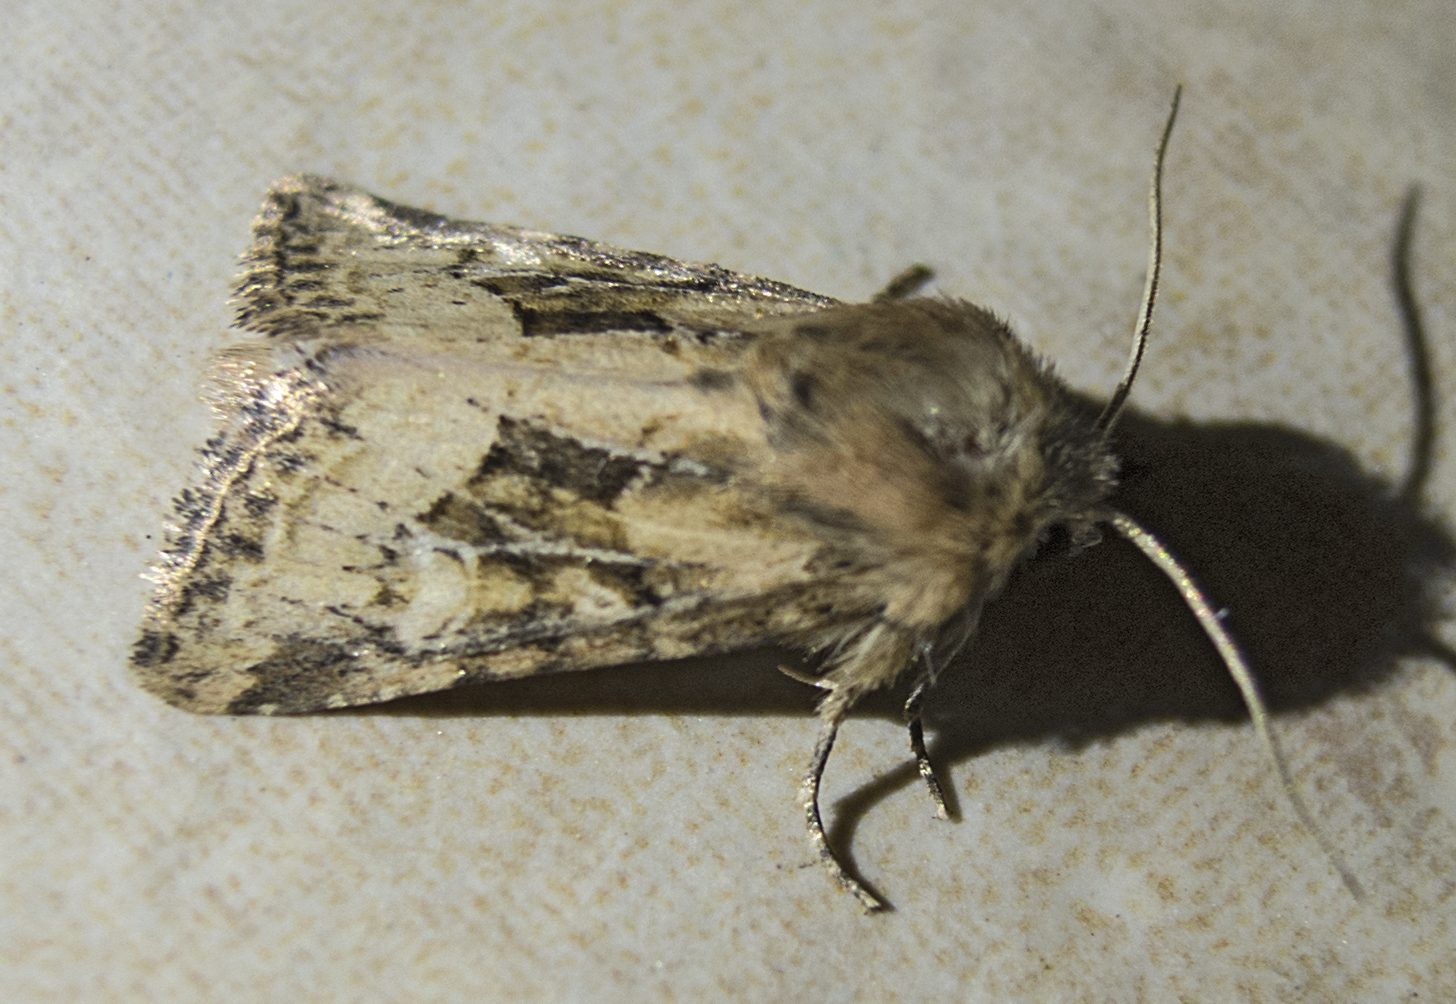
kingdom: Animalia
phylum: Arthropoda
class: Insecta
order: Lepidoptera
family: Noctuidae
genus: Luperina
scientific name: Luperina dumerilii
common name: Dumeril's rustic
